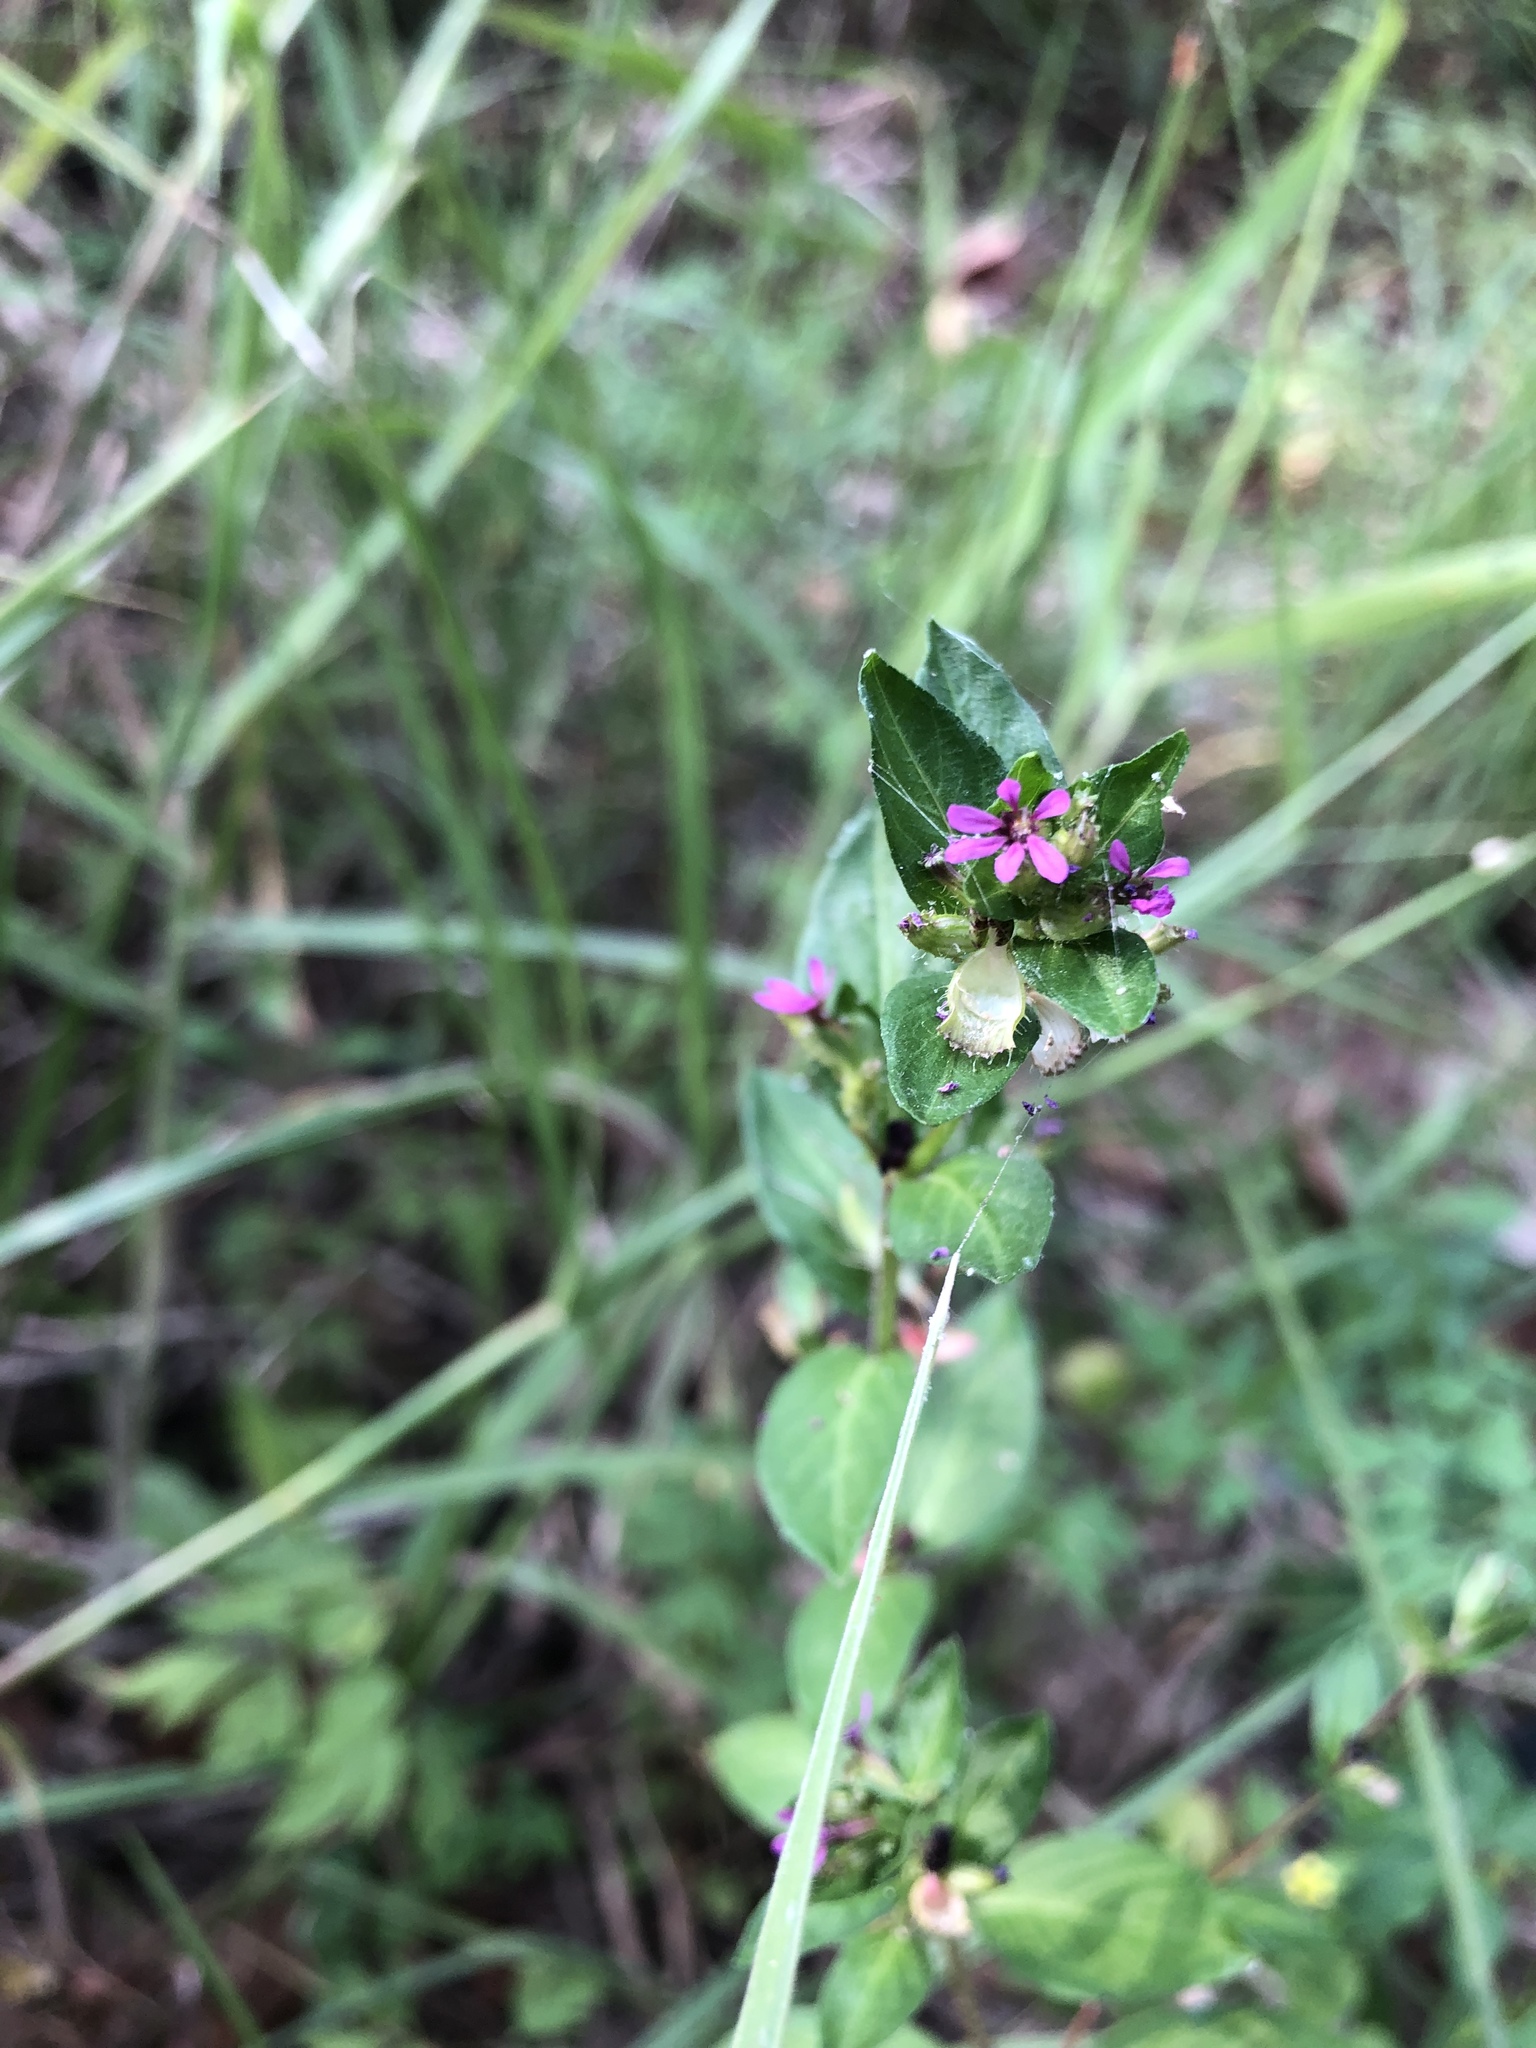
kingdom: Plantae
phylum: Tracheophyta
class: Magnoliopsida
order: Myrtales
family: Lythraceae
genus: Cuphea
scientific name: Cuphea carthagenensis
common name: Colombian waxweed
